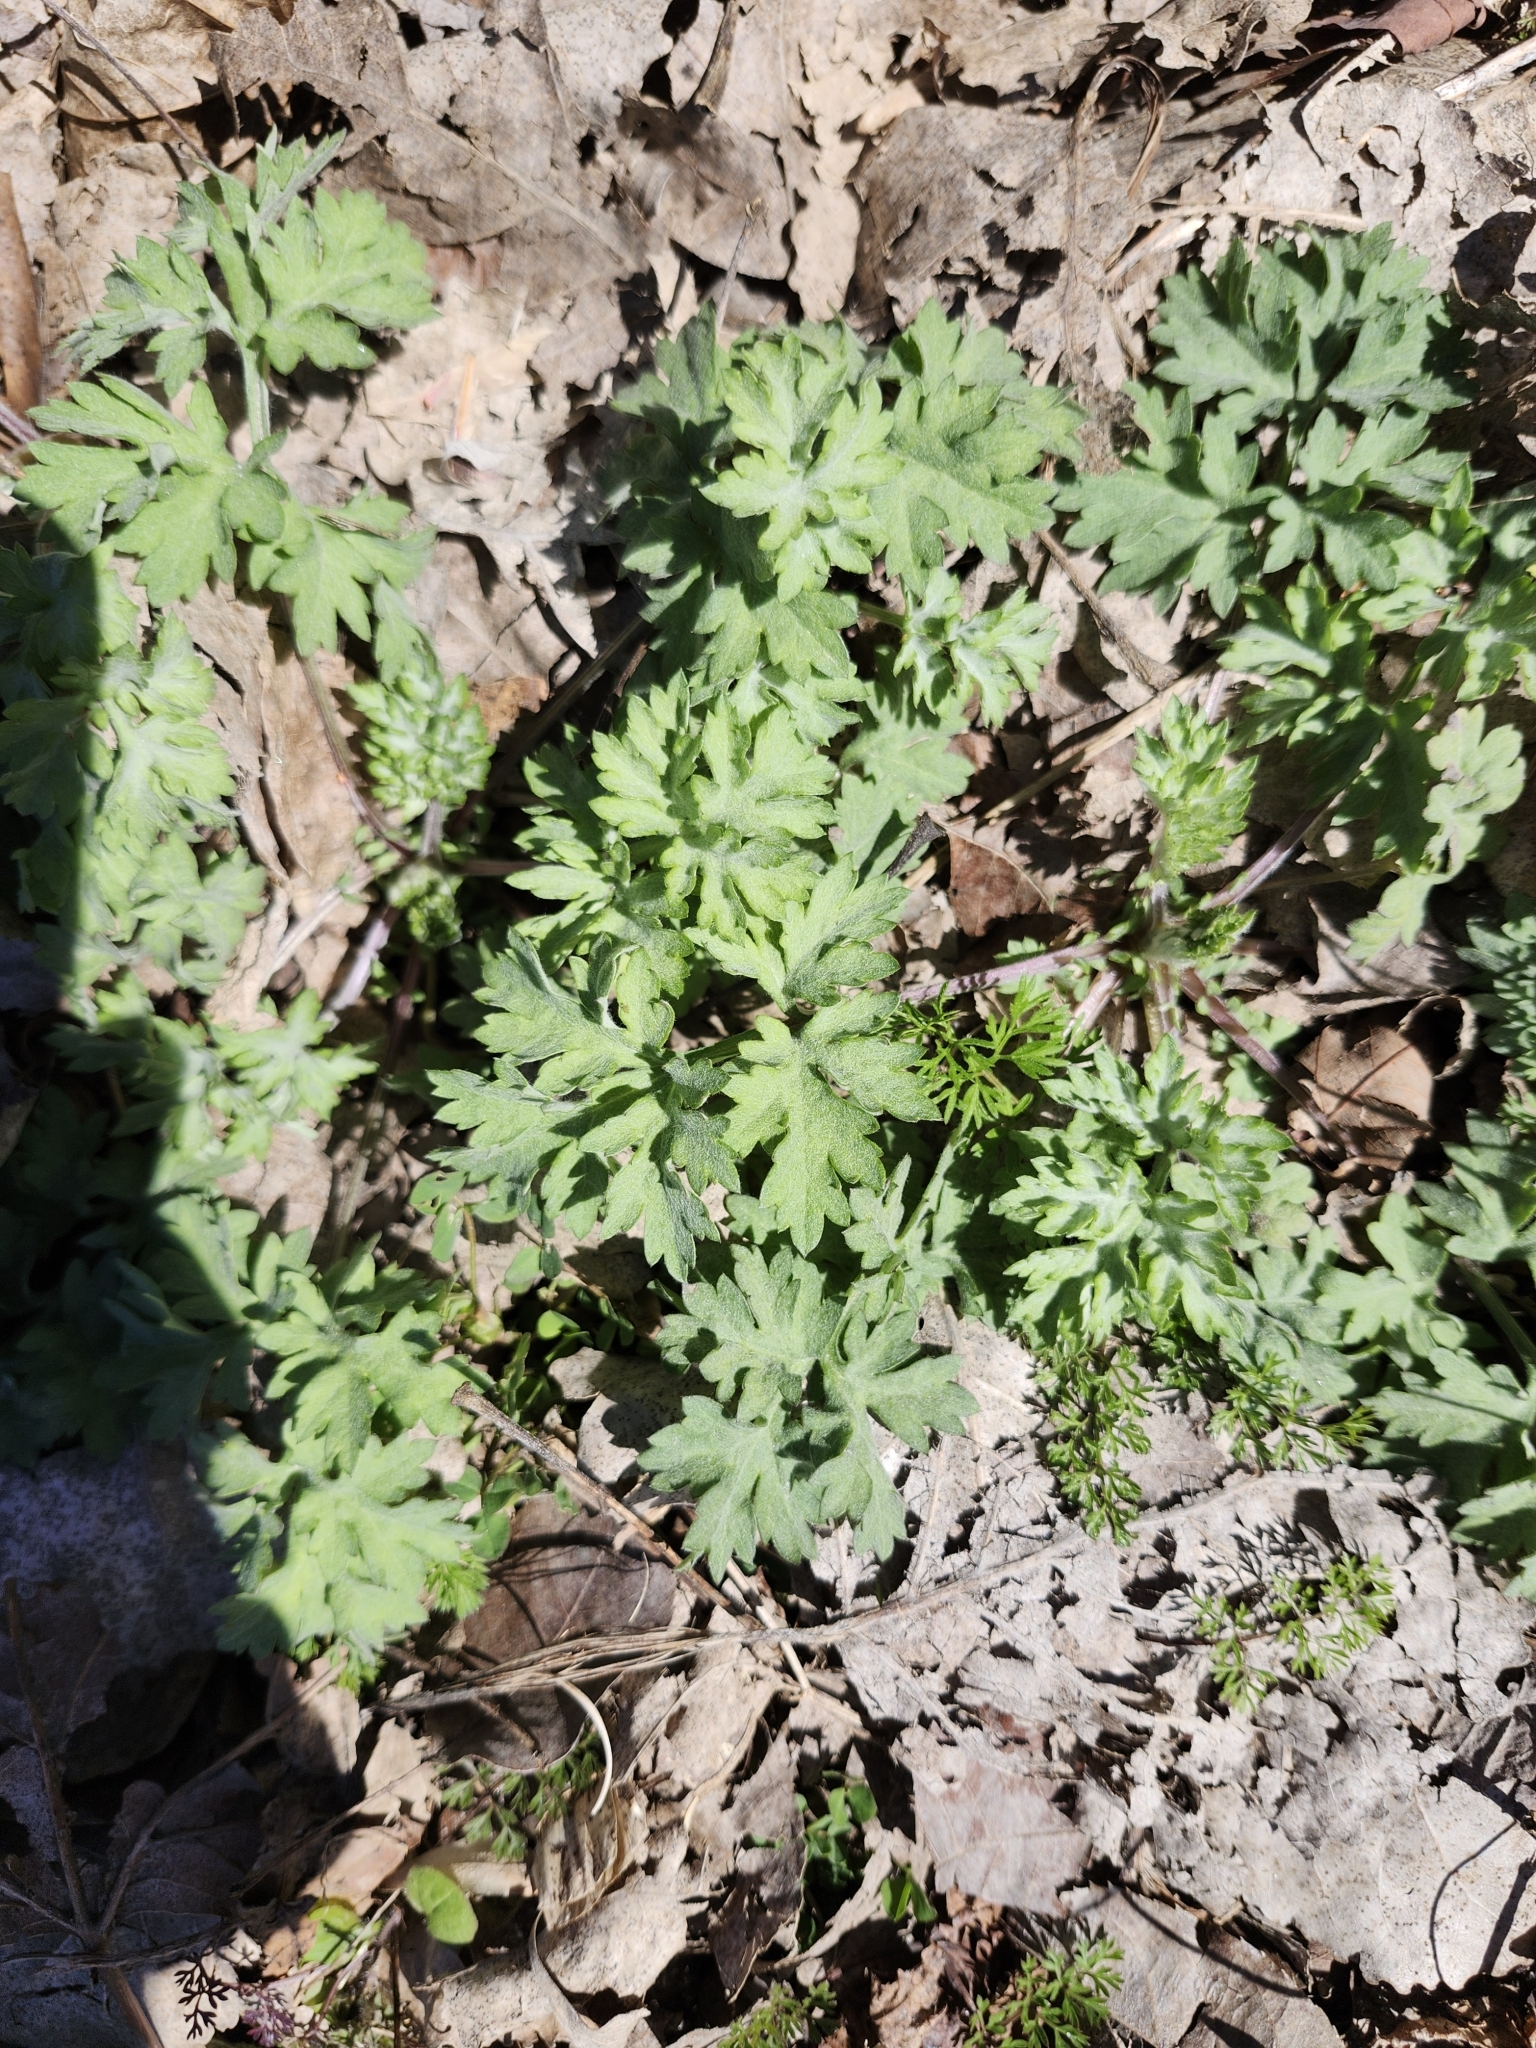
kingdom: Plantae
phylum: Tracheophyta
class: Magnoliopsida
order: Asterales
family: Asteraceae
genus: Artemisia
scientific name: Artemisia vulgaris
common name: Mugwort
